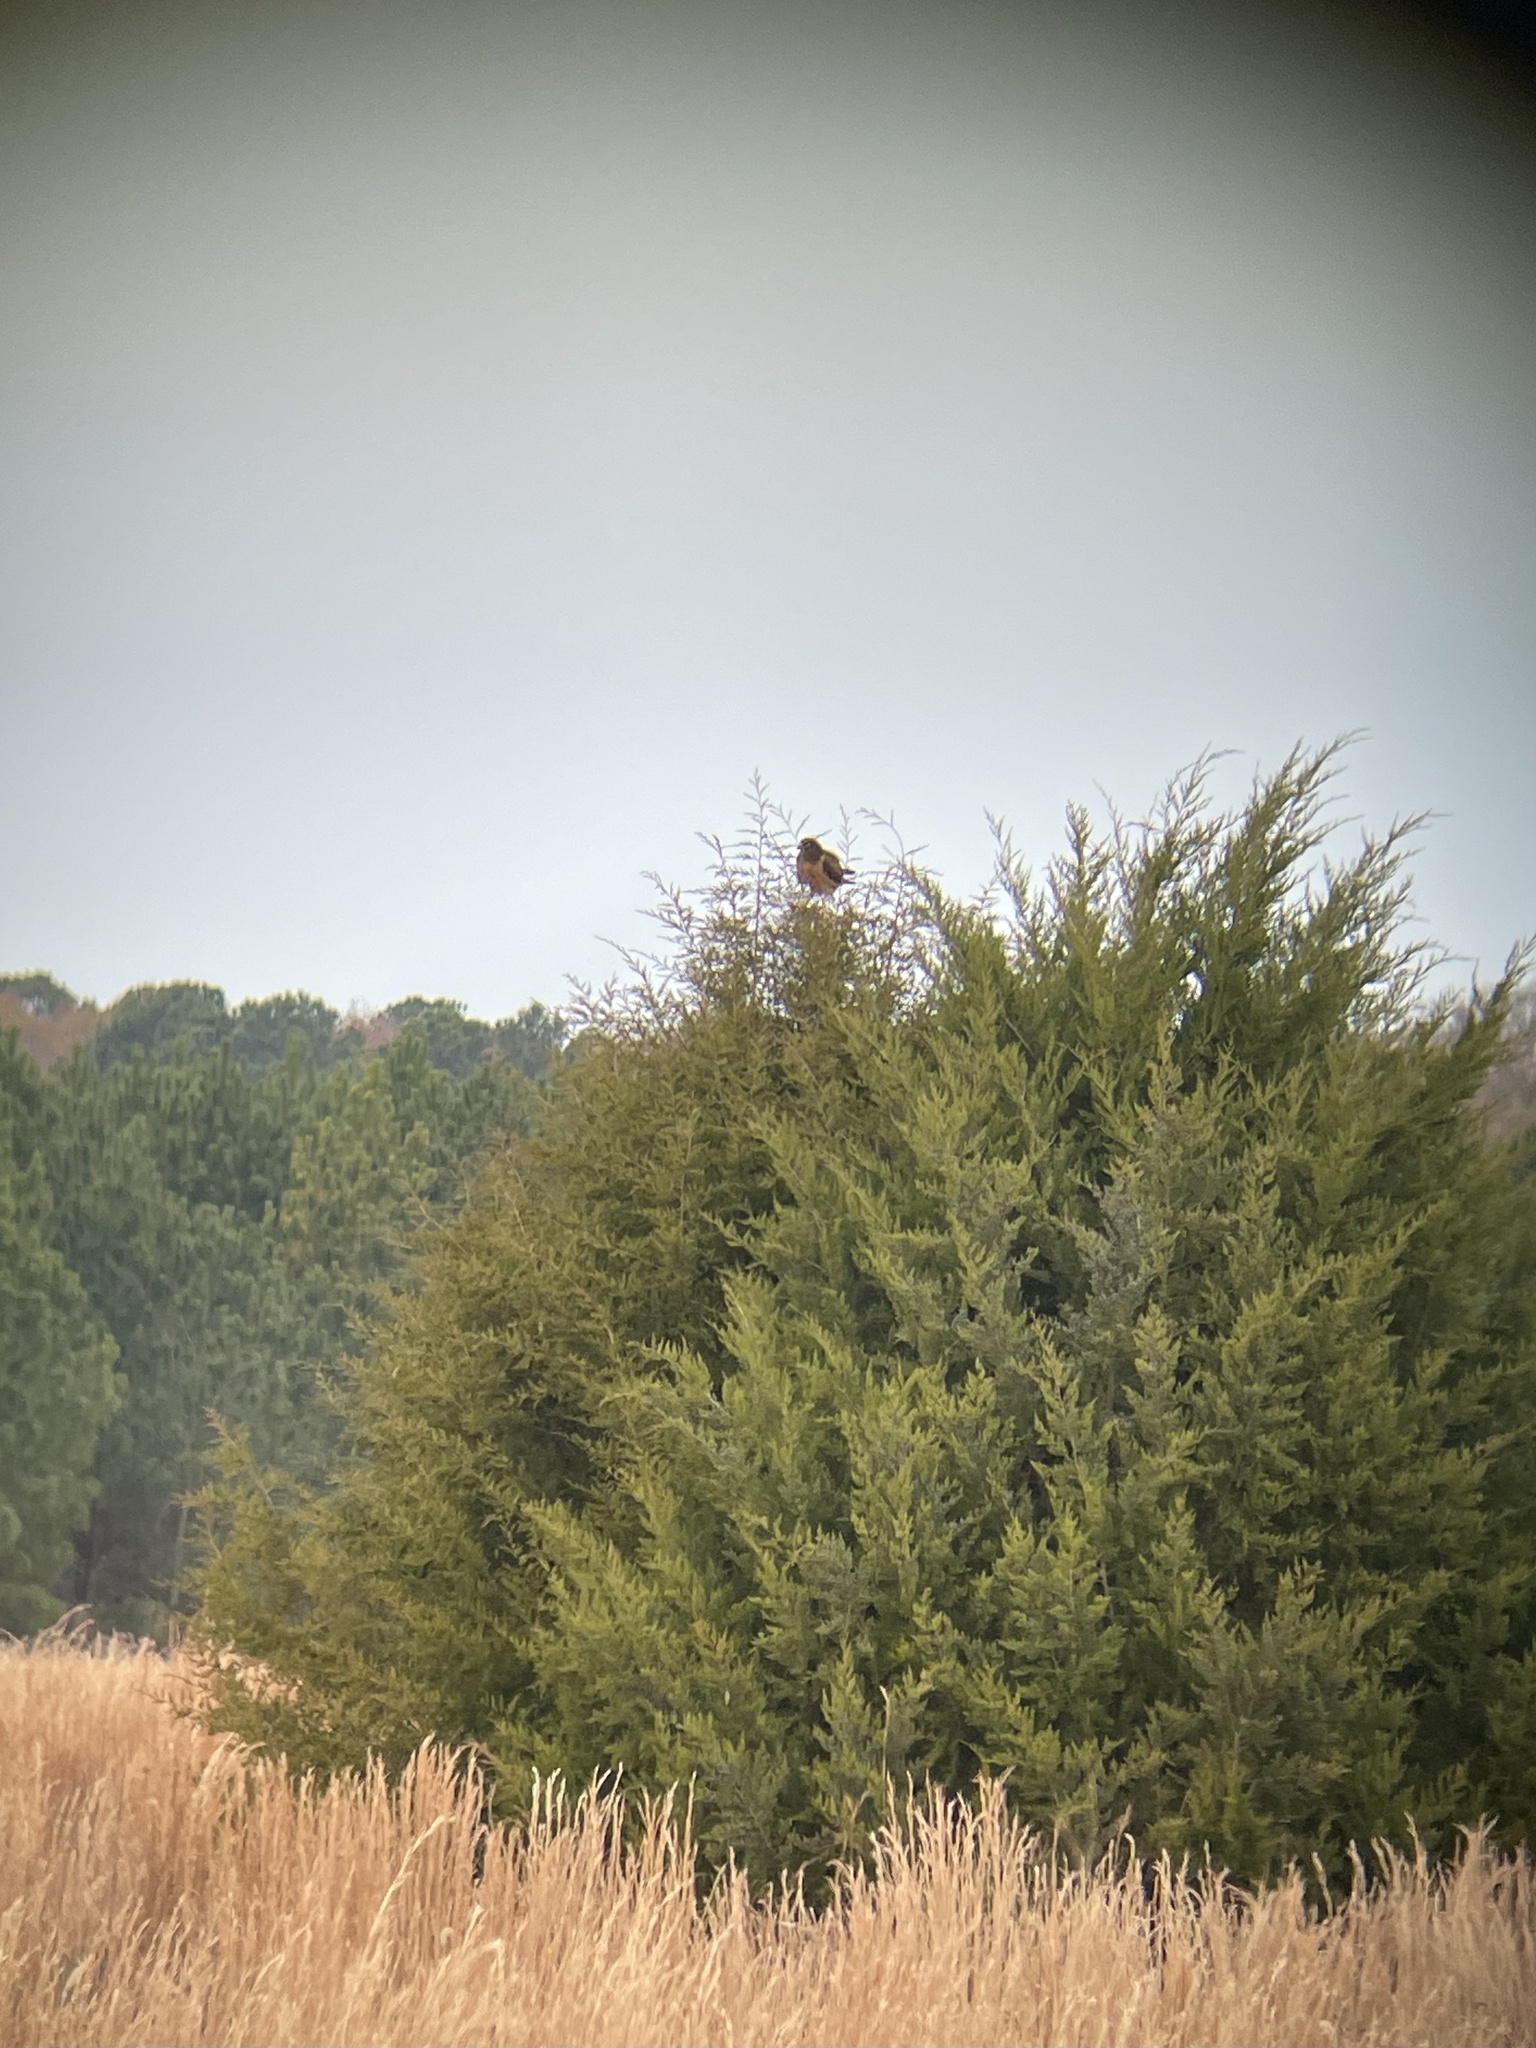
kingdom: Animalia
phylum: Chordata
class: Aves
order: Accipitriformes
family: Accipitridae
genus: Circus
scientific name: Circus cyaneus
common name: Hen harrier
